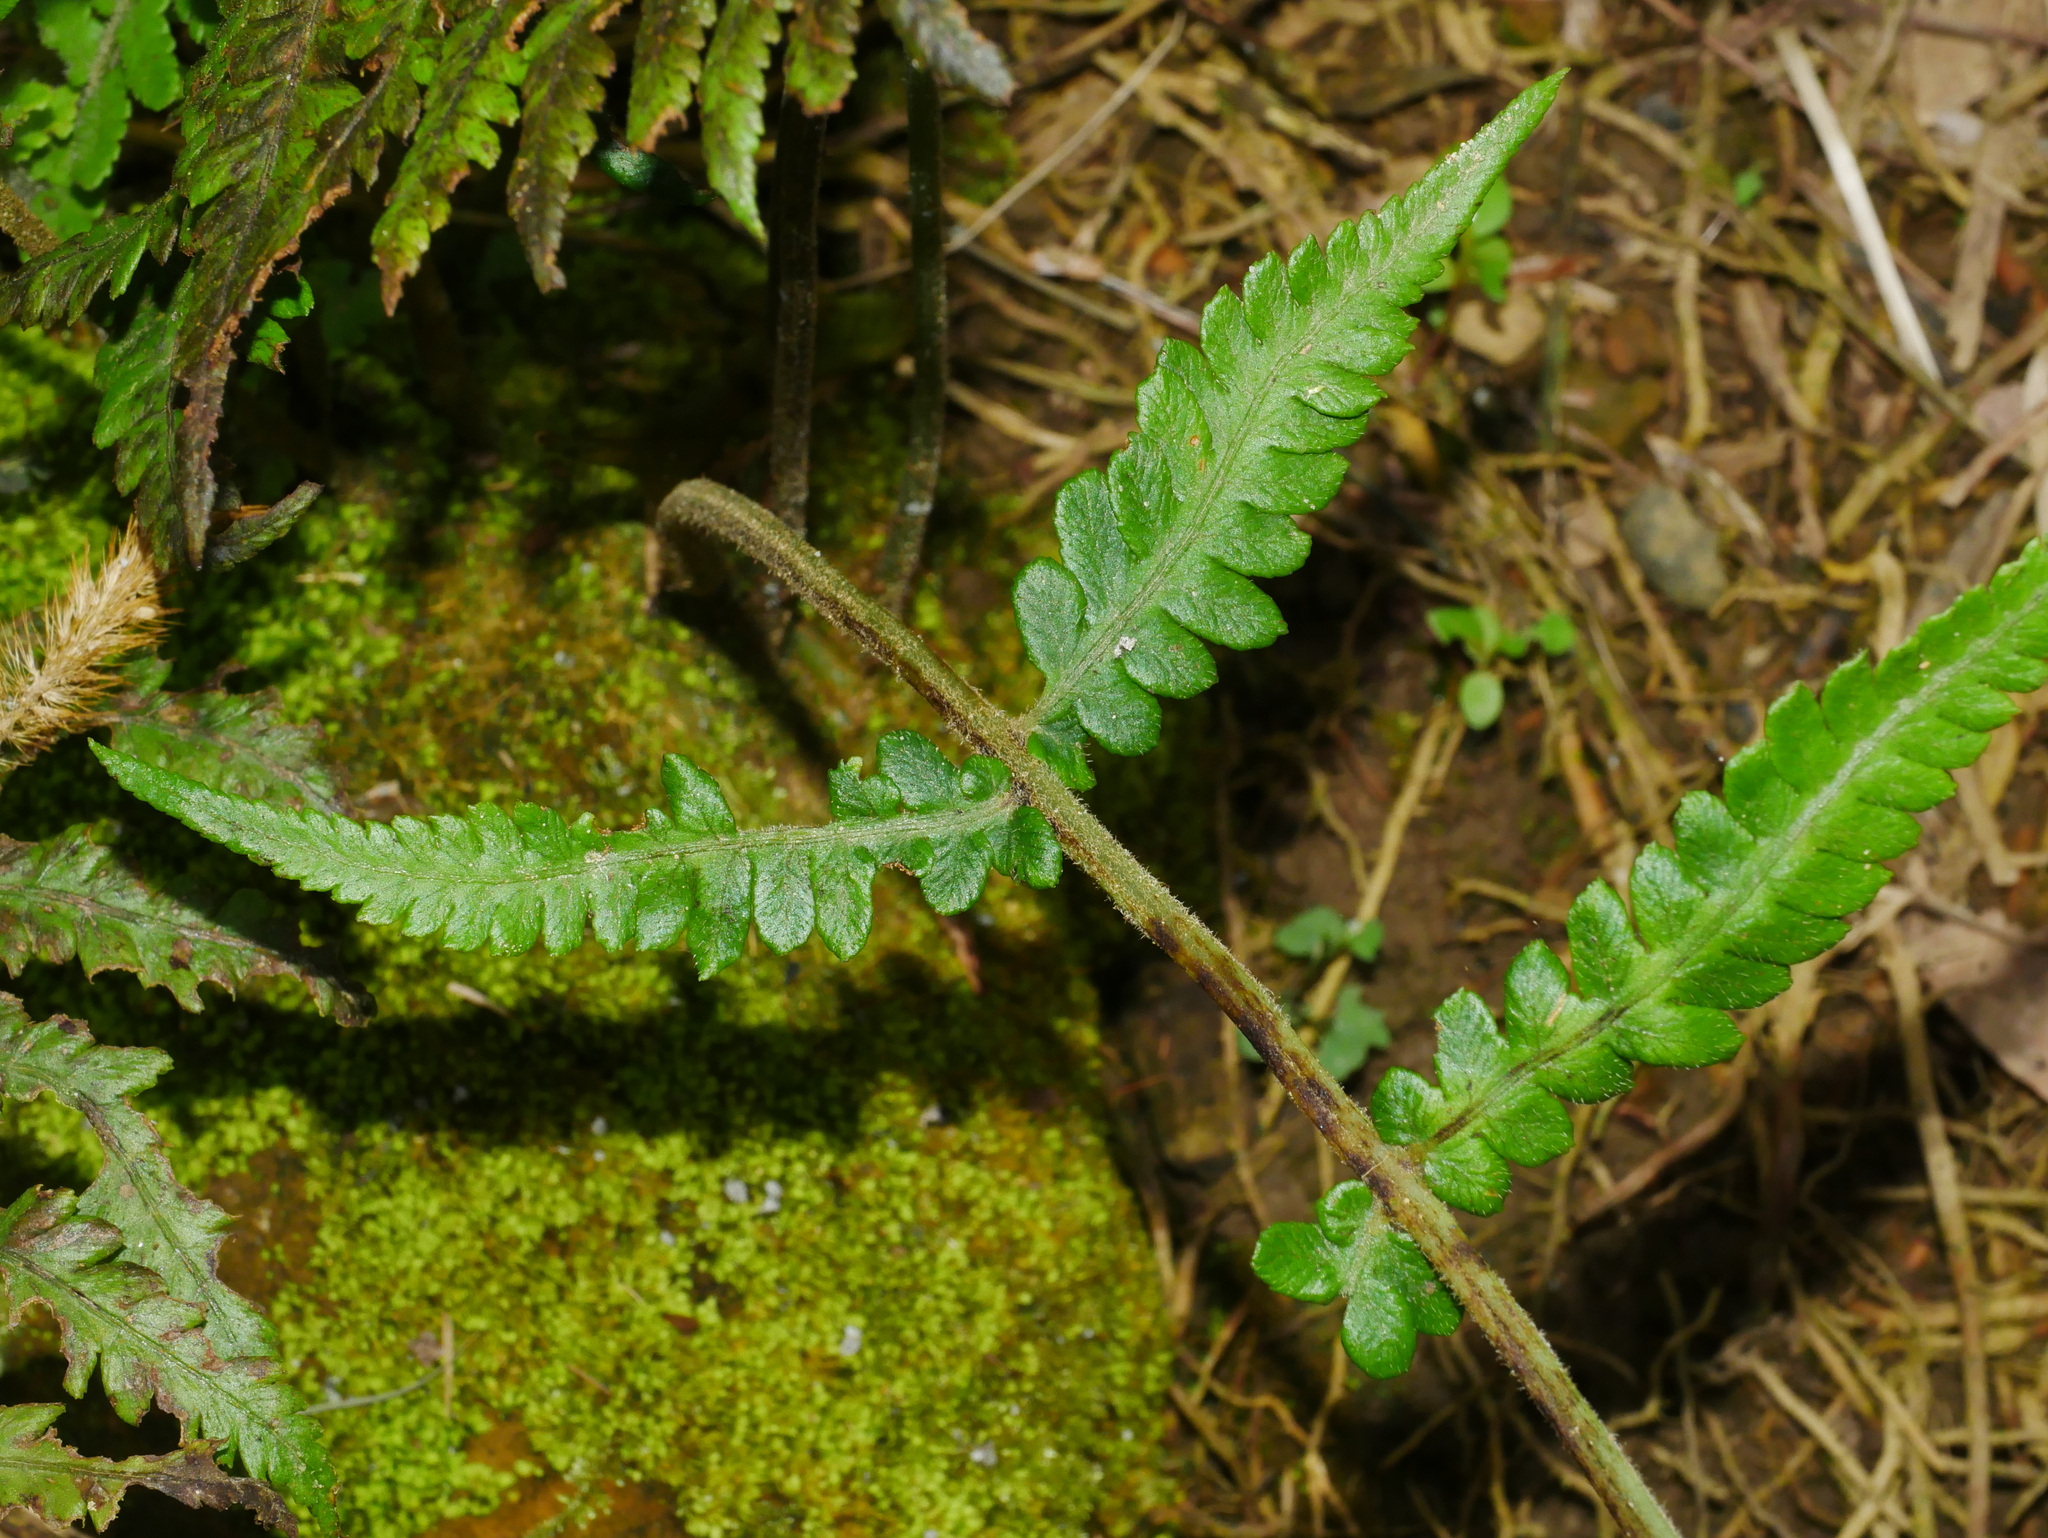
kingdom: Plantae
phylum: Tracheophyta
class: Polypodiopsida
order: Polypodiales
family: Athyriaceae
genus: Deparia
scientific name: Deparia petersenii
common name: Japanese false spleenwort
